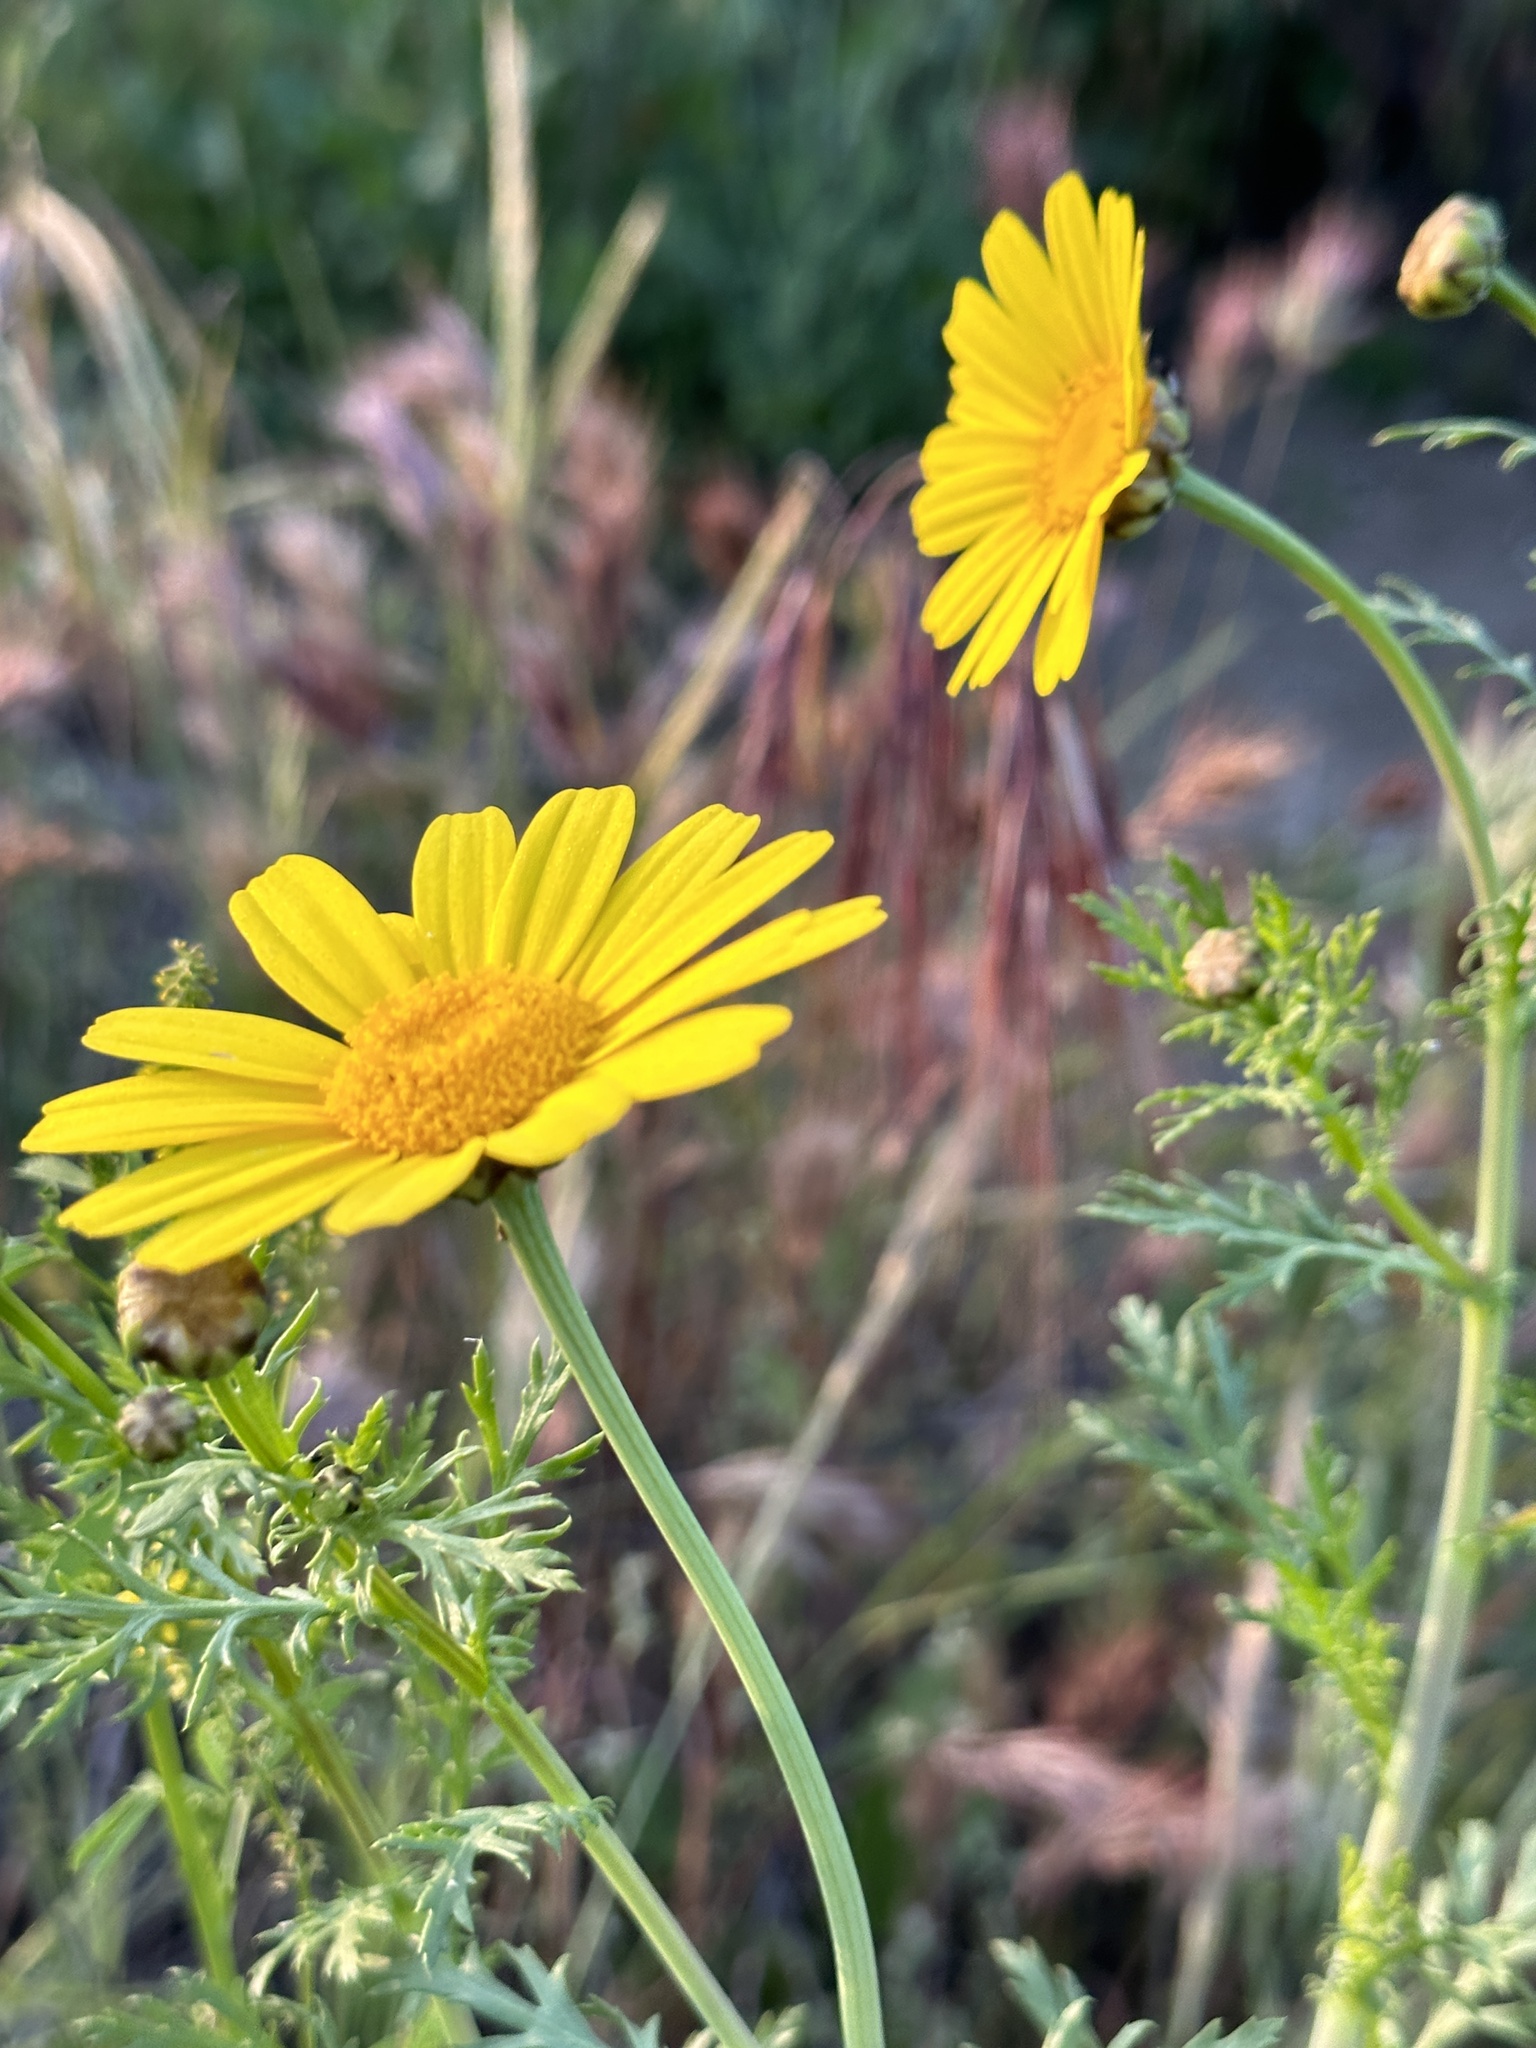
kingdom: Plantae
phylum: Tracheophyta
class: Magnoliopsida
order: Asterales
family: Asteraceae
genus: Glebionis
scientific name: Glebionis coronaria
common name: Crowndaisy
